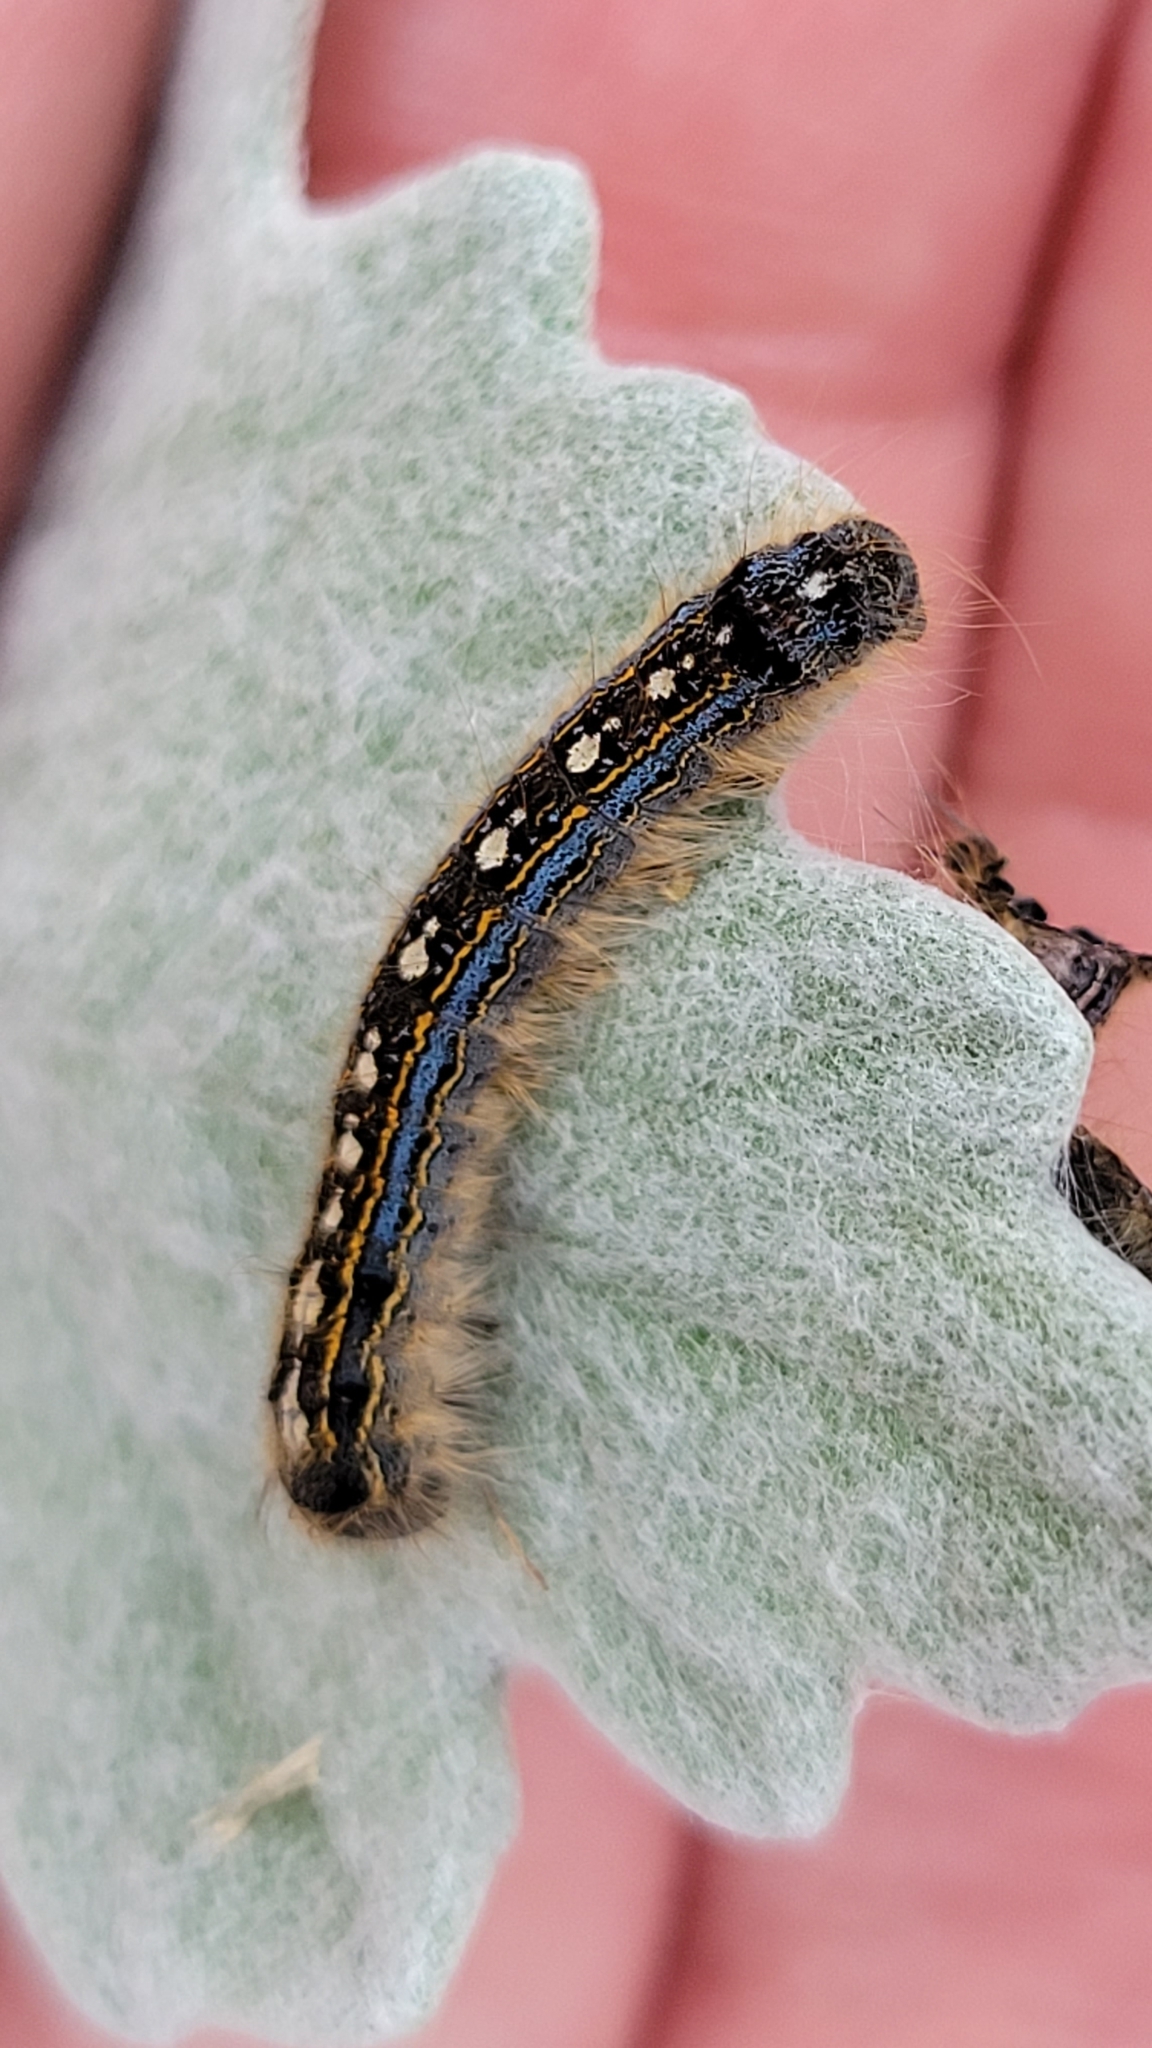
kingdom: Animalia
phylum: Arthropoda
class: Insecta
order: Lepidoptera
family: Lasiocampidae
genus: Malacosoma
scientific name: Malacosoma disstria
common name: Forest tent caterpillar
